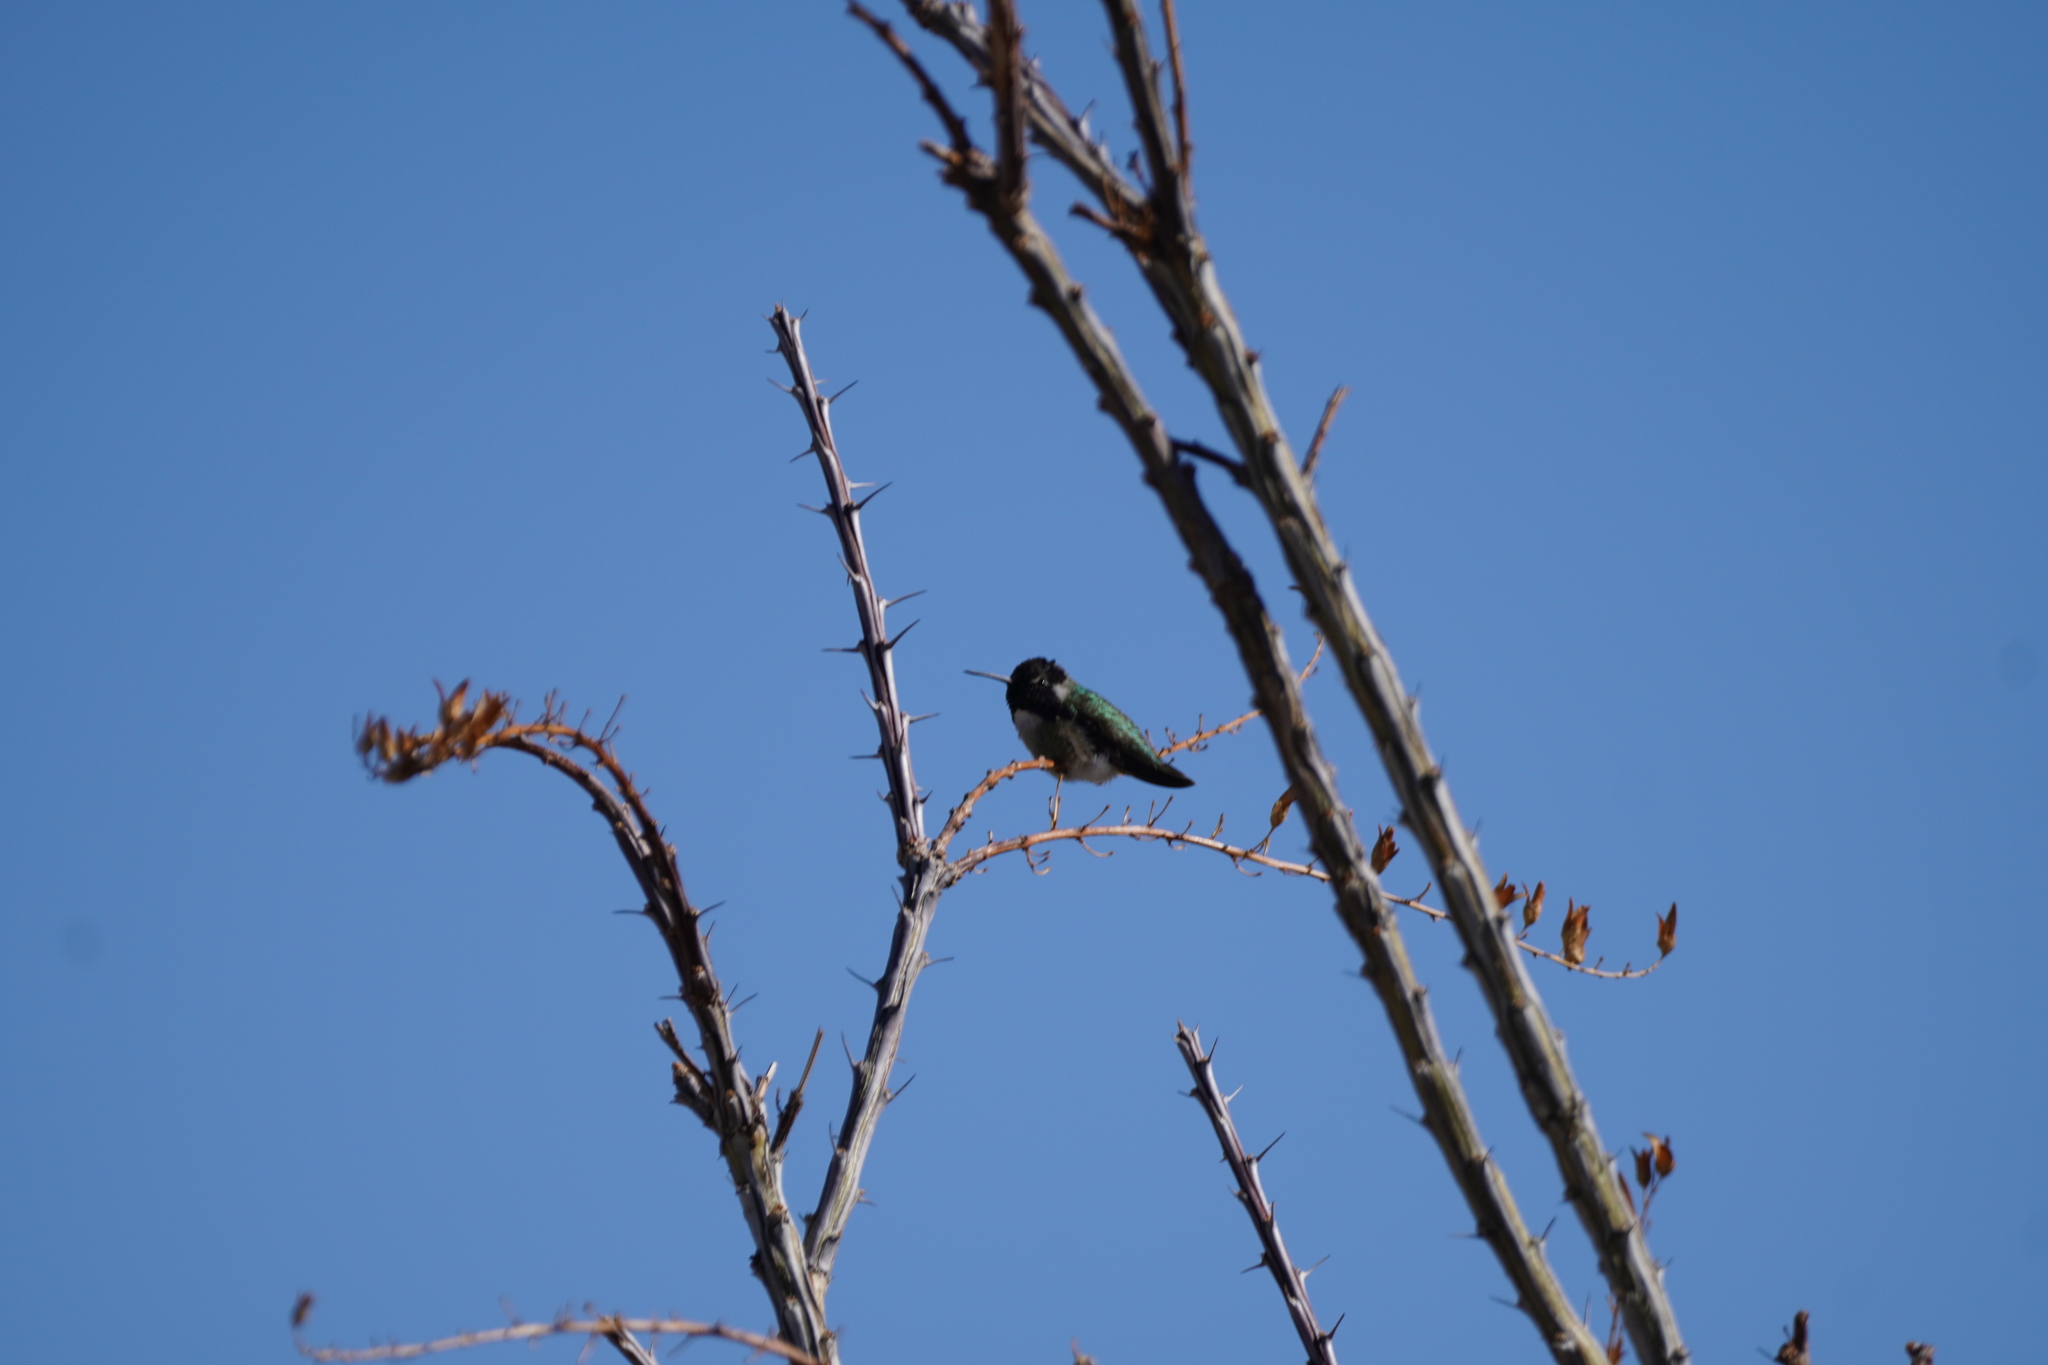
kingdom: Animalia
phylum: Chordata
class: Aves
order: Apodiformes
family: Trochilidae
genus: Calypte
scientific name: Calypte costae
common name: Costa's hummingbird
